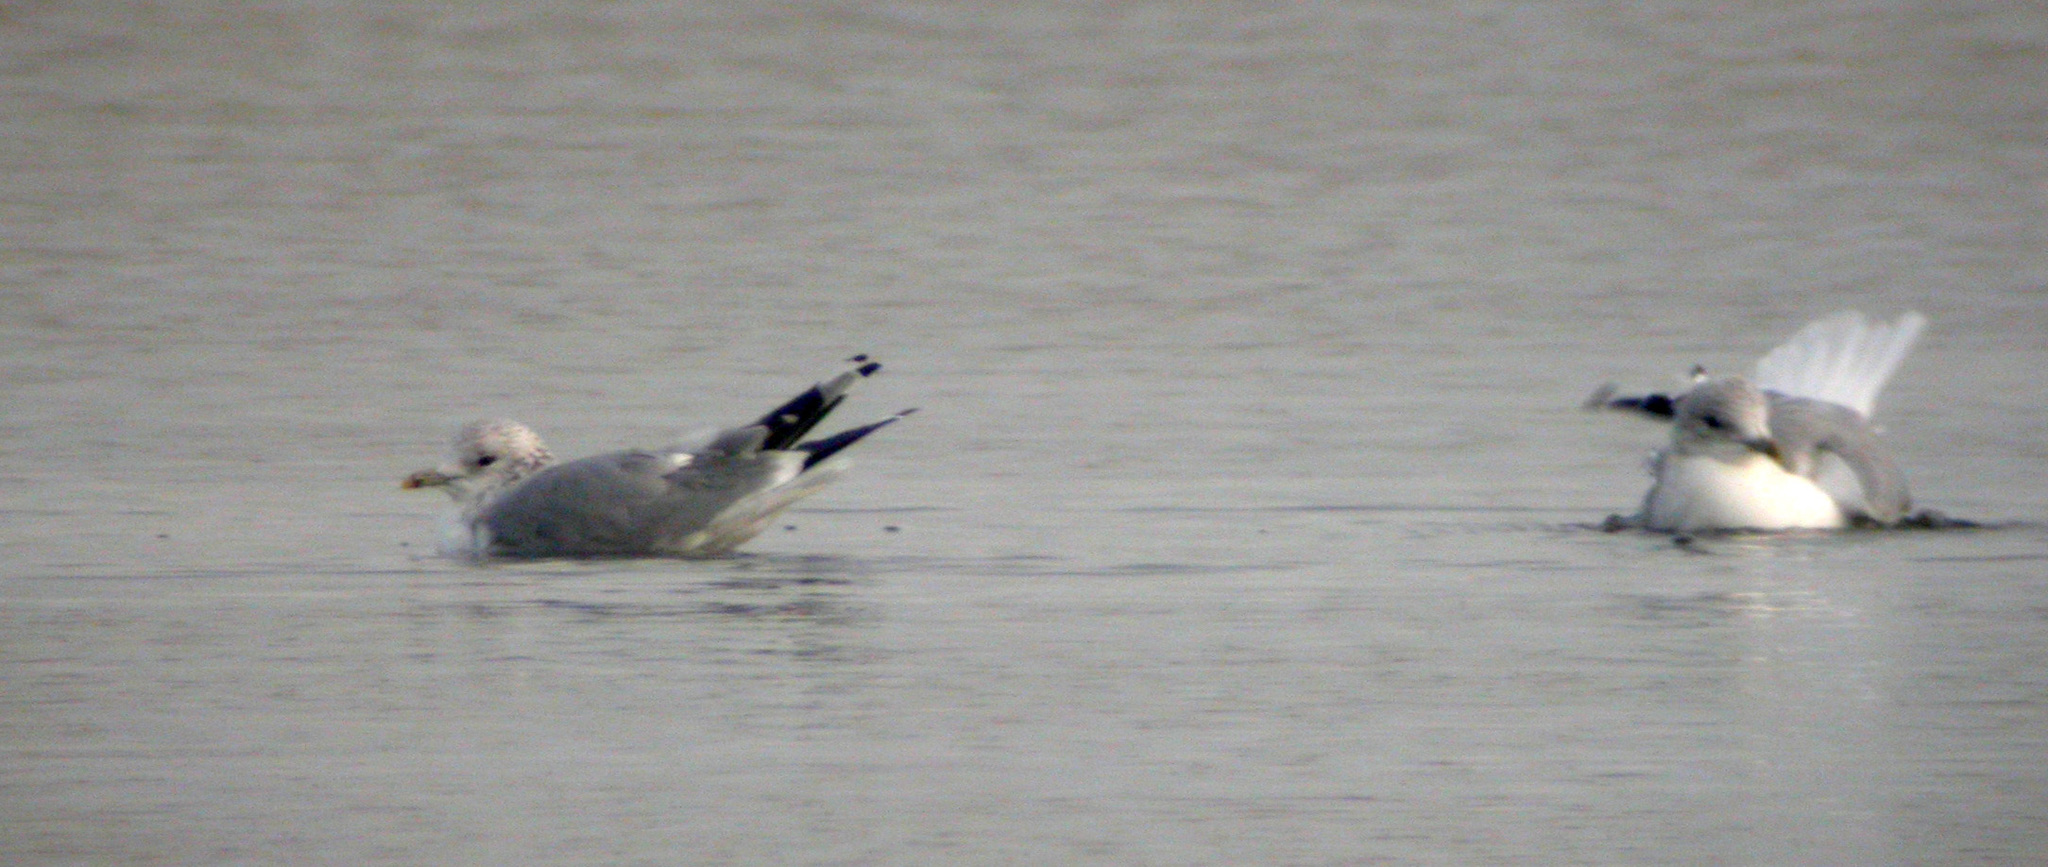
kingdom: Animalia
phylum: Chordata
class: Aves
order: Charadriiformes
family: Laridae
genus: Larus
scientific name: Larus canus
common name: Mew gull
